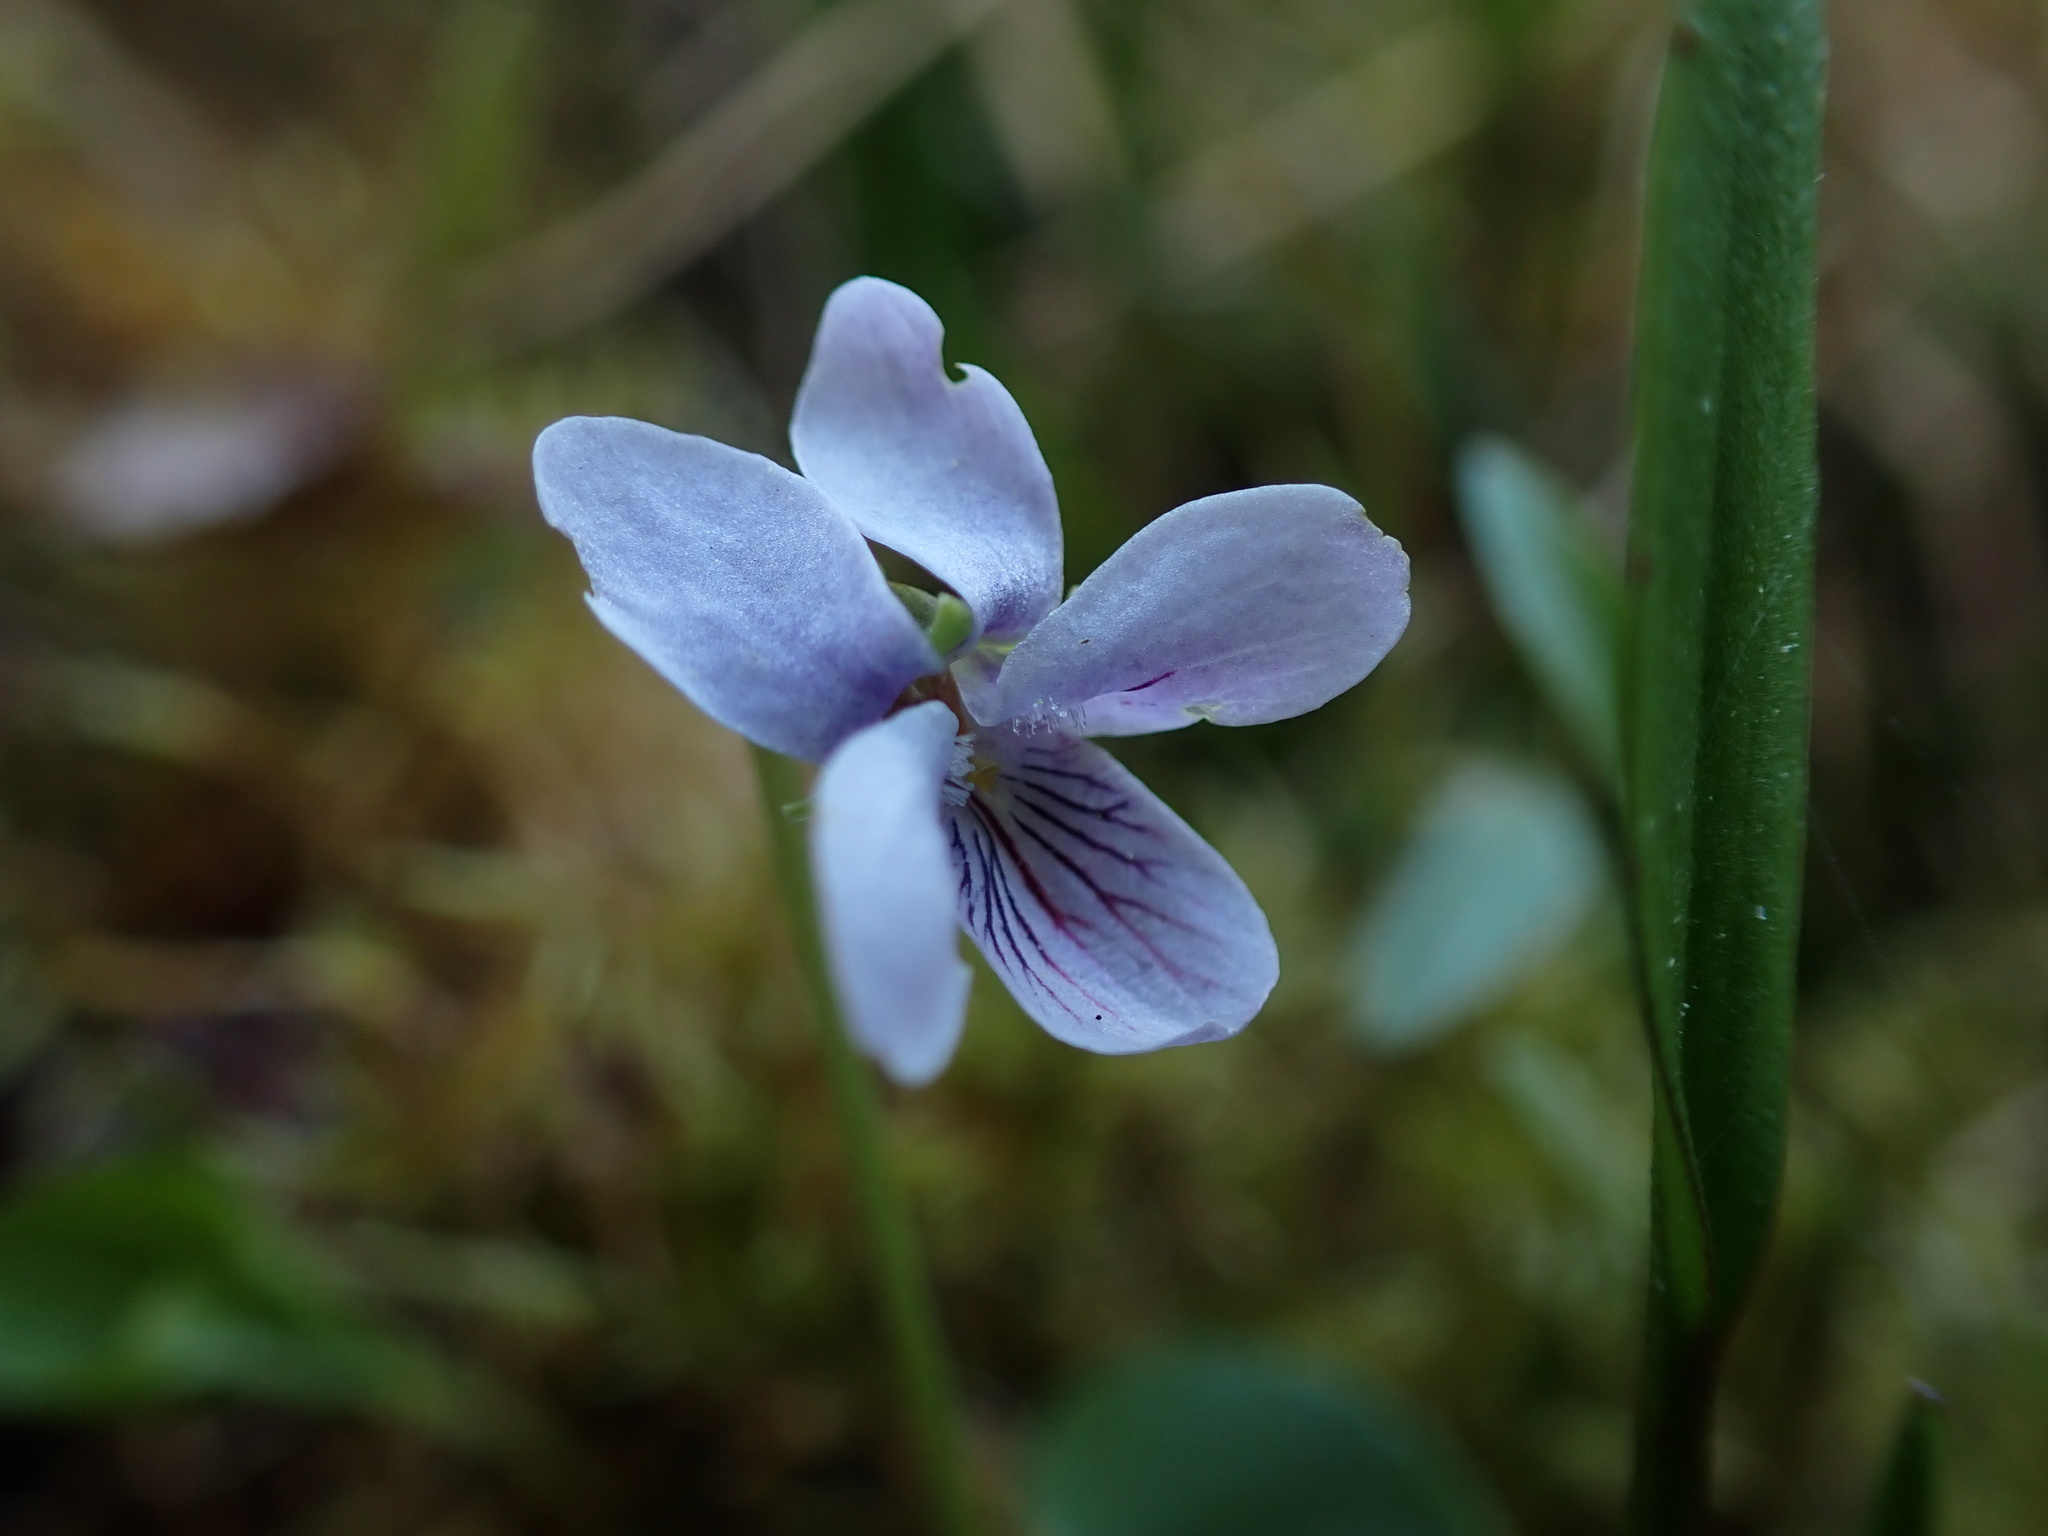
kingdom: Plantae
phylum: Tracheophyta
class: Magnoliopsida
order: Malpighiales
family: Violaceae
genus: Viola
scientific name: Viola palustris
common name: Marsh violet
